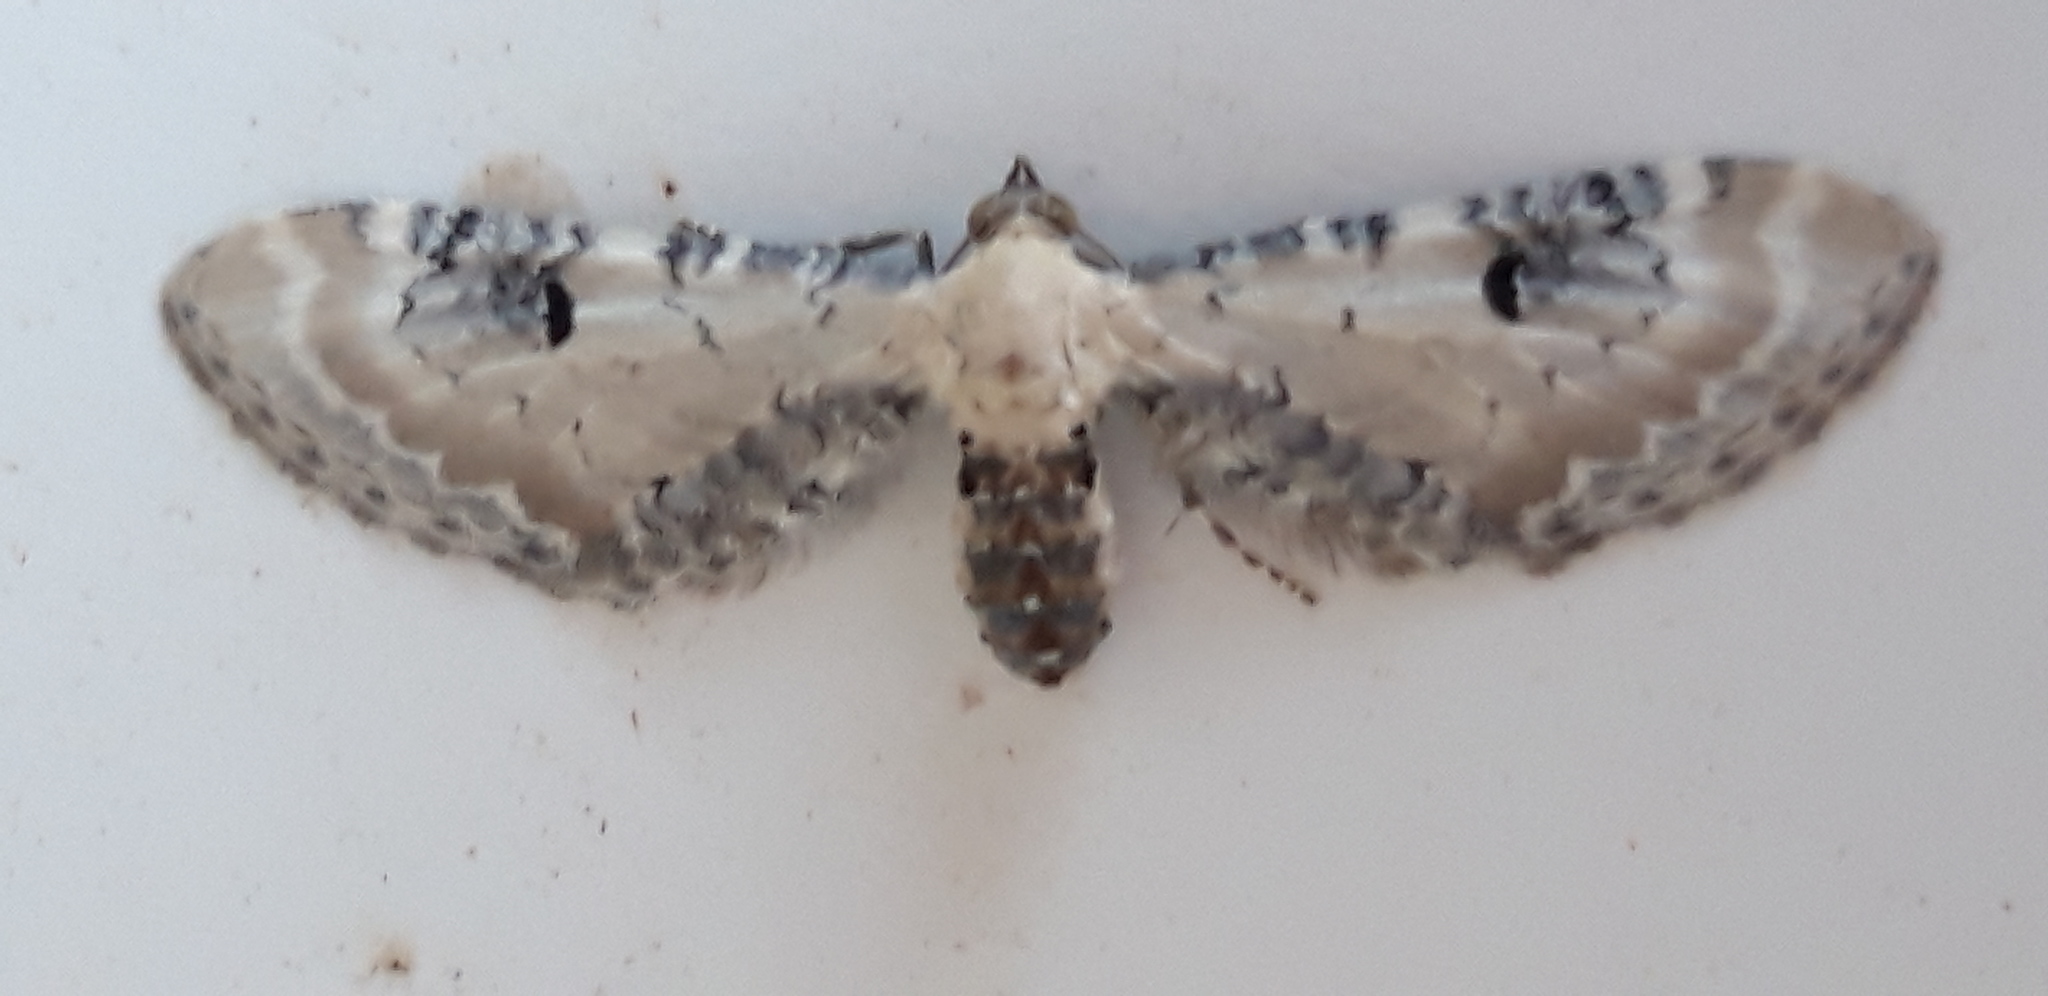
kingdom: Animalia
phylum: Arthropoda
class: Insecta
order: Lepidoptera
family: Geometridae
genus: Eupithecia
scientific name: Eupithecia centaureata
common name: Lime-speck pug
